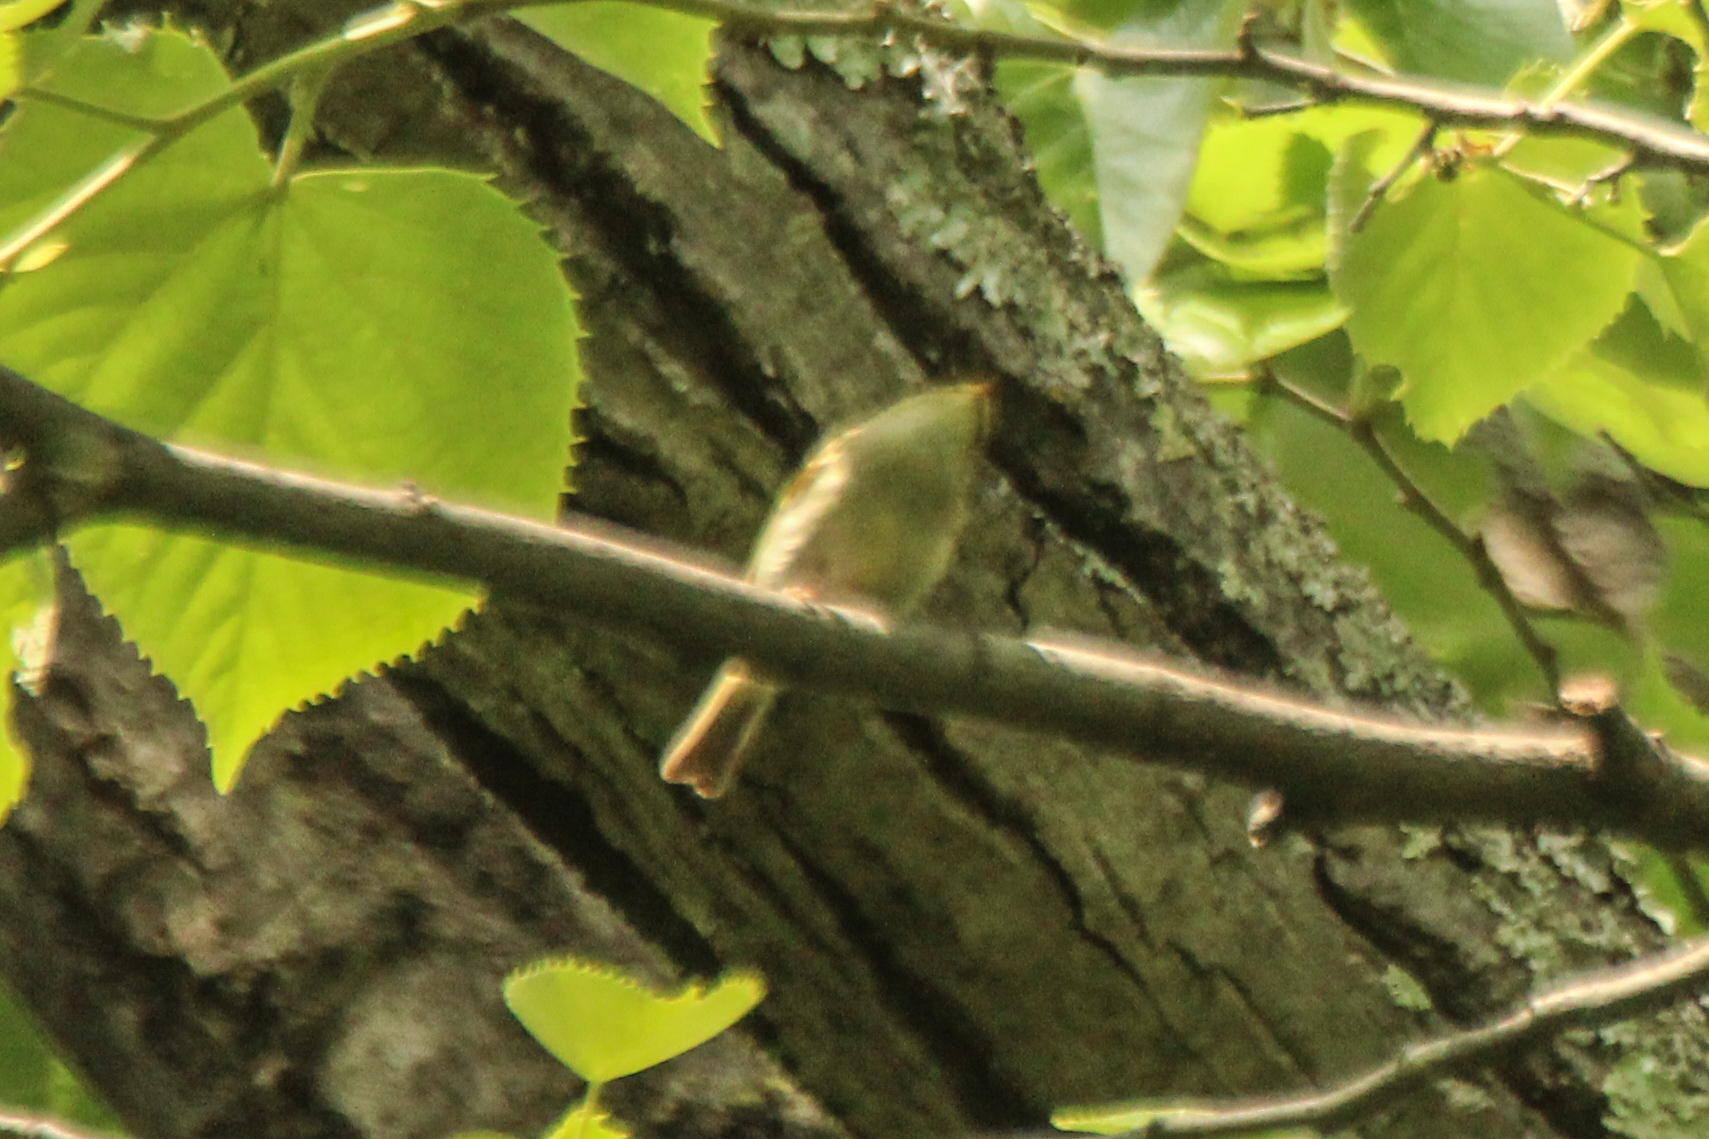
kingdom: Animalia
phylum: Chordata
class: Aves
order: Passeriformes
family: Phylloscopidae
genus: Phylloscopus
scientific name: Phylloscopus proregulus
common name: Pallas's leaf warbler
